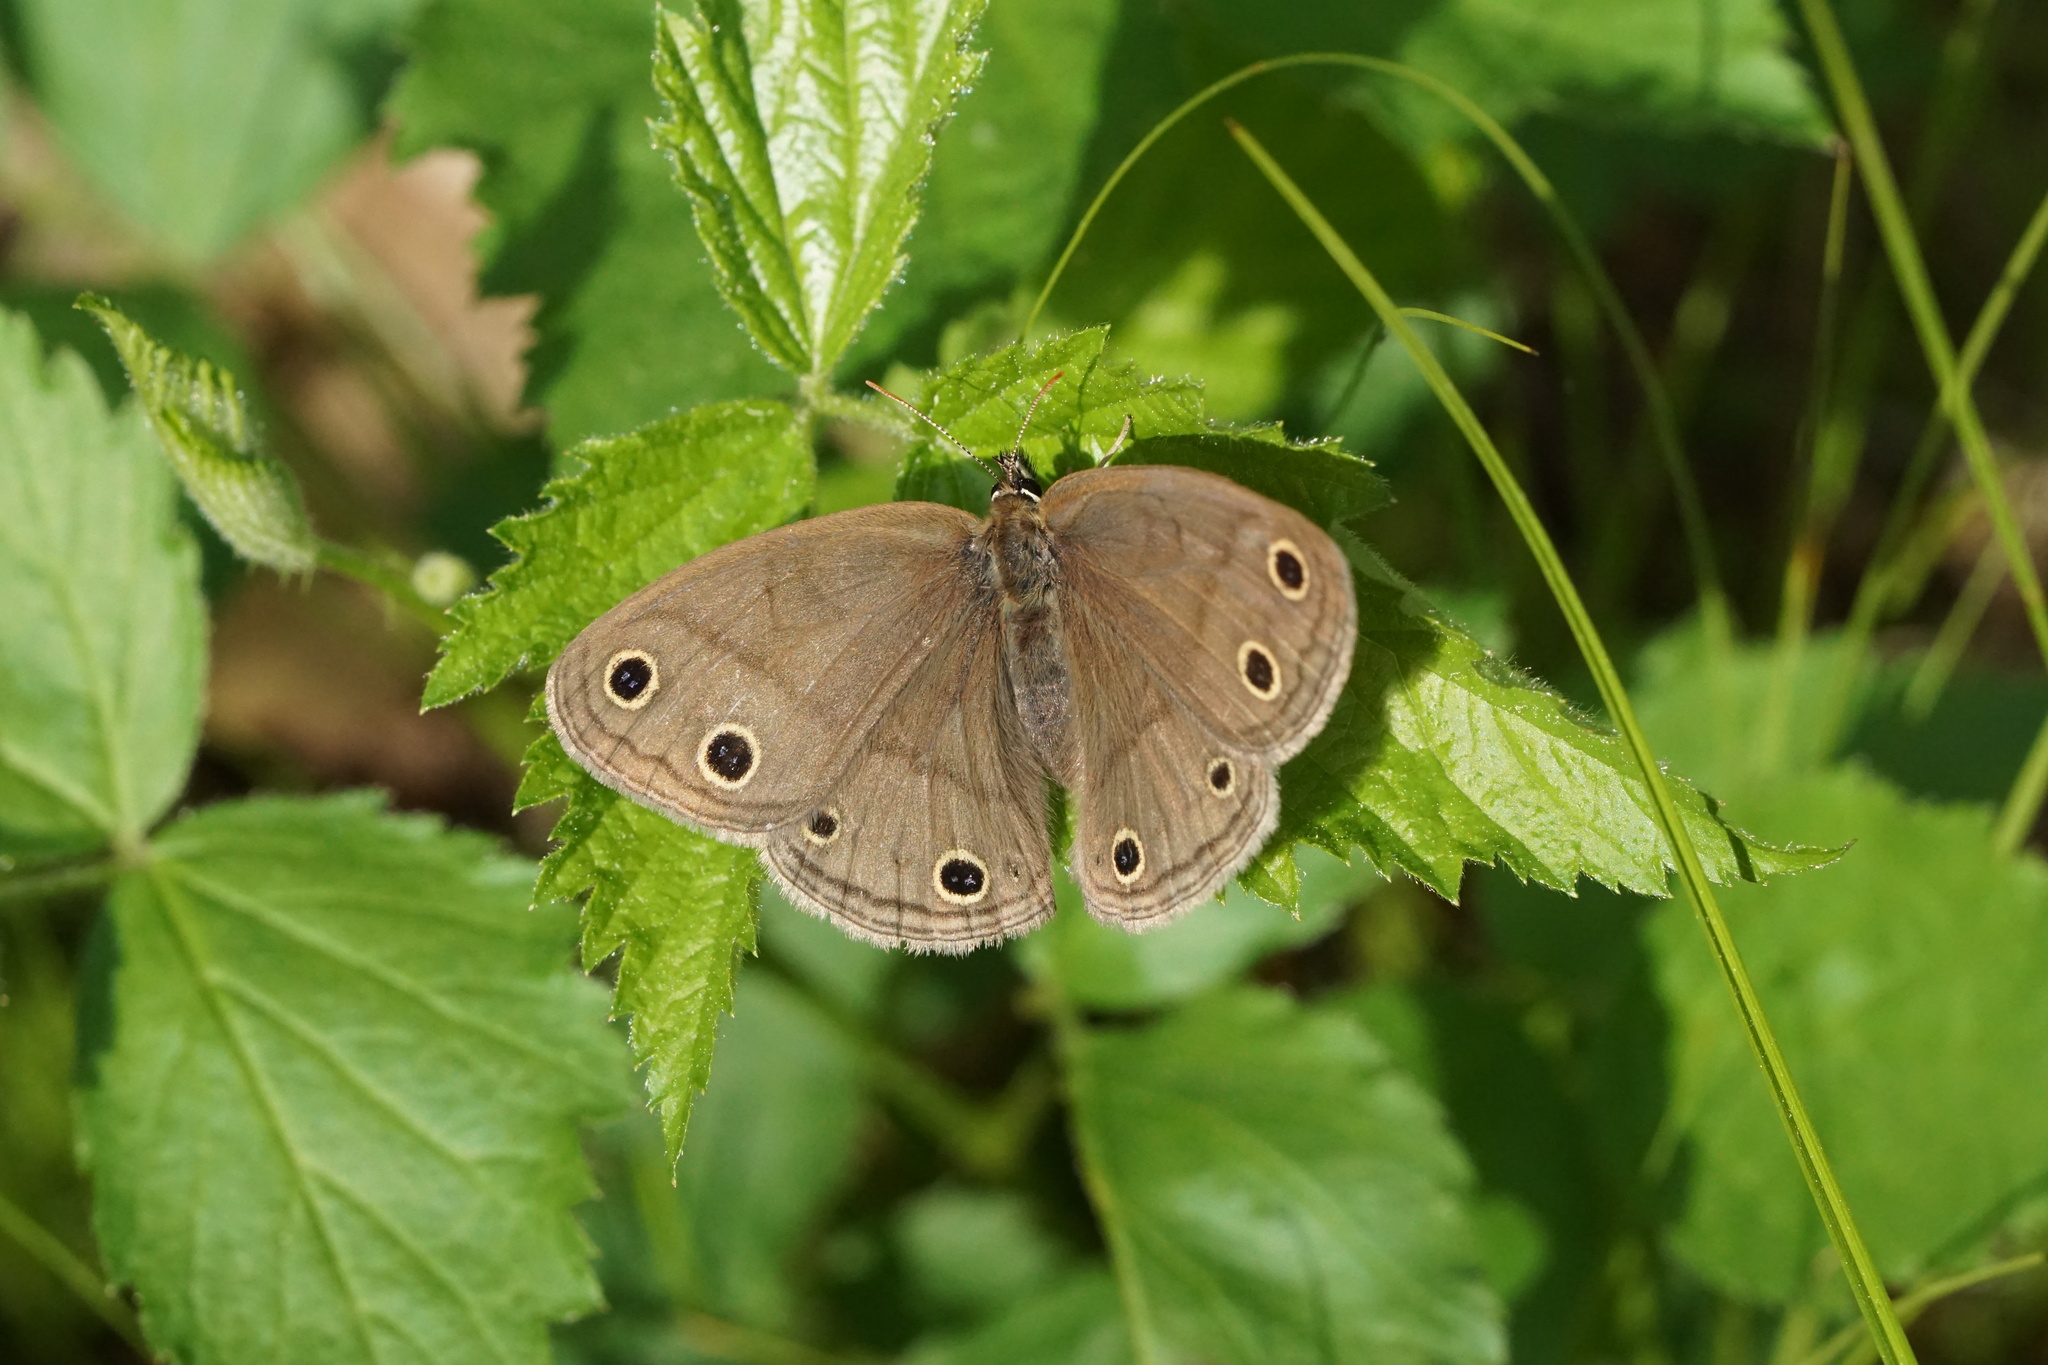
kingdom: Animalia
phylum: Arthropoda
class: Insecta
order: Lepidoptera
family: Nymphalidae
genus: Euptychia
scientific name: Euptychia cymela
